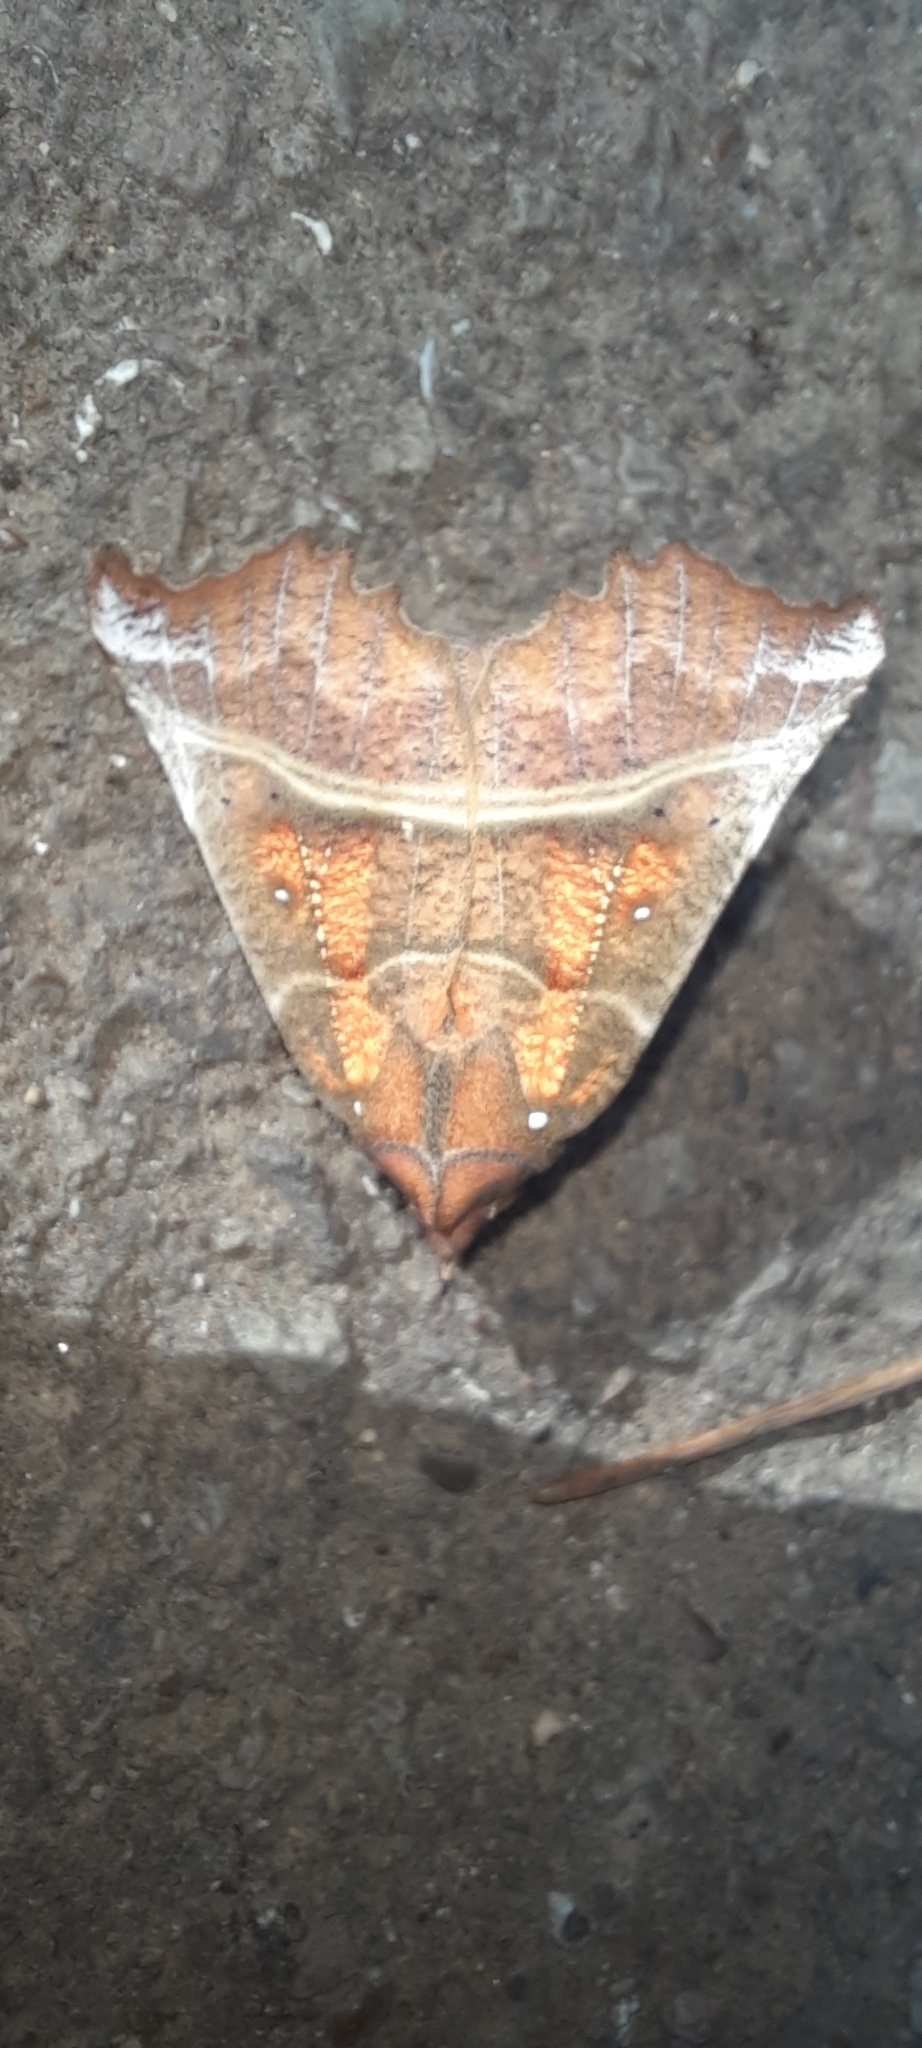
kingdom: Animalia
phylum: Arthropoda
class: Insecta
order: Lepidoptera
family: Erebidae
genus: Scoliopteryx
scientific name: Scoliopteryx libatrix
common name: Herald
